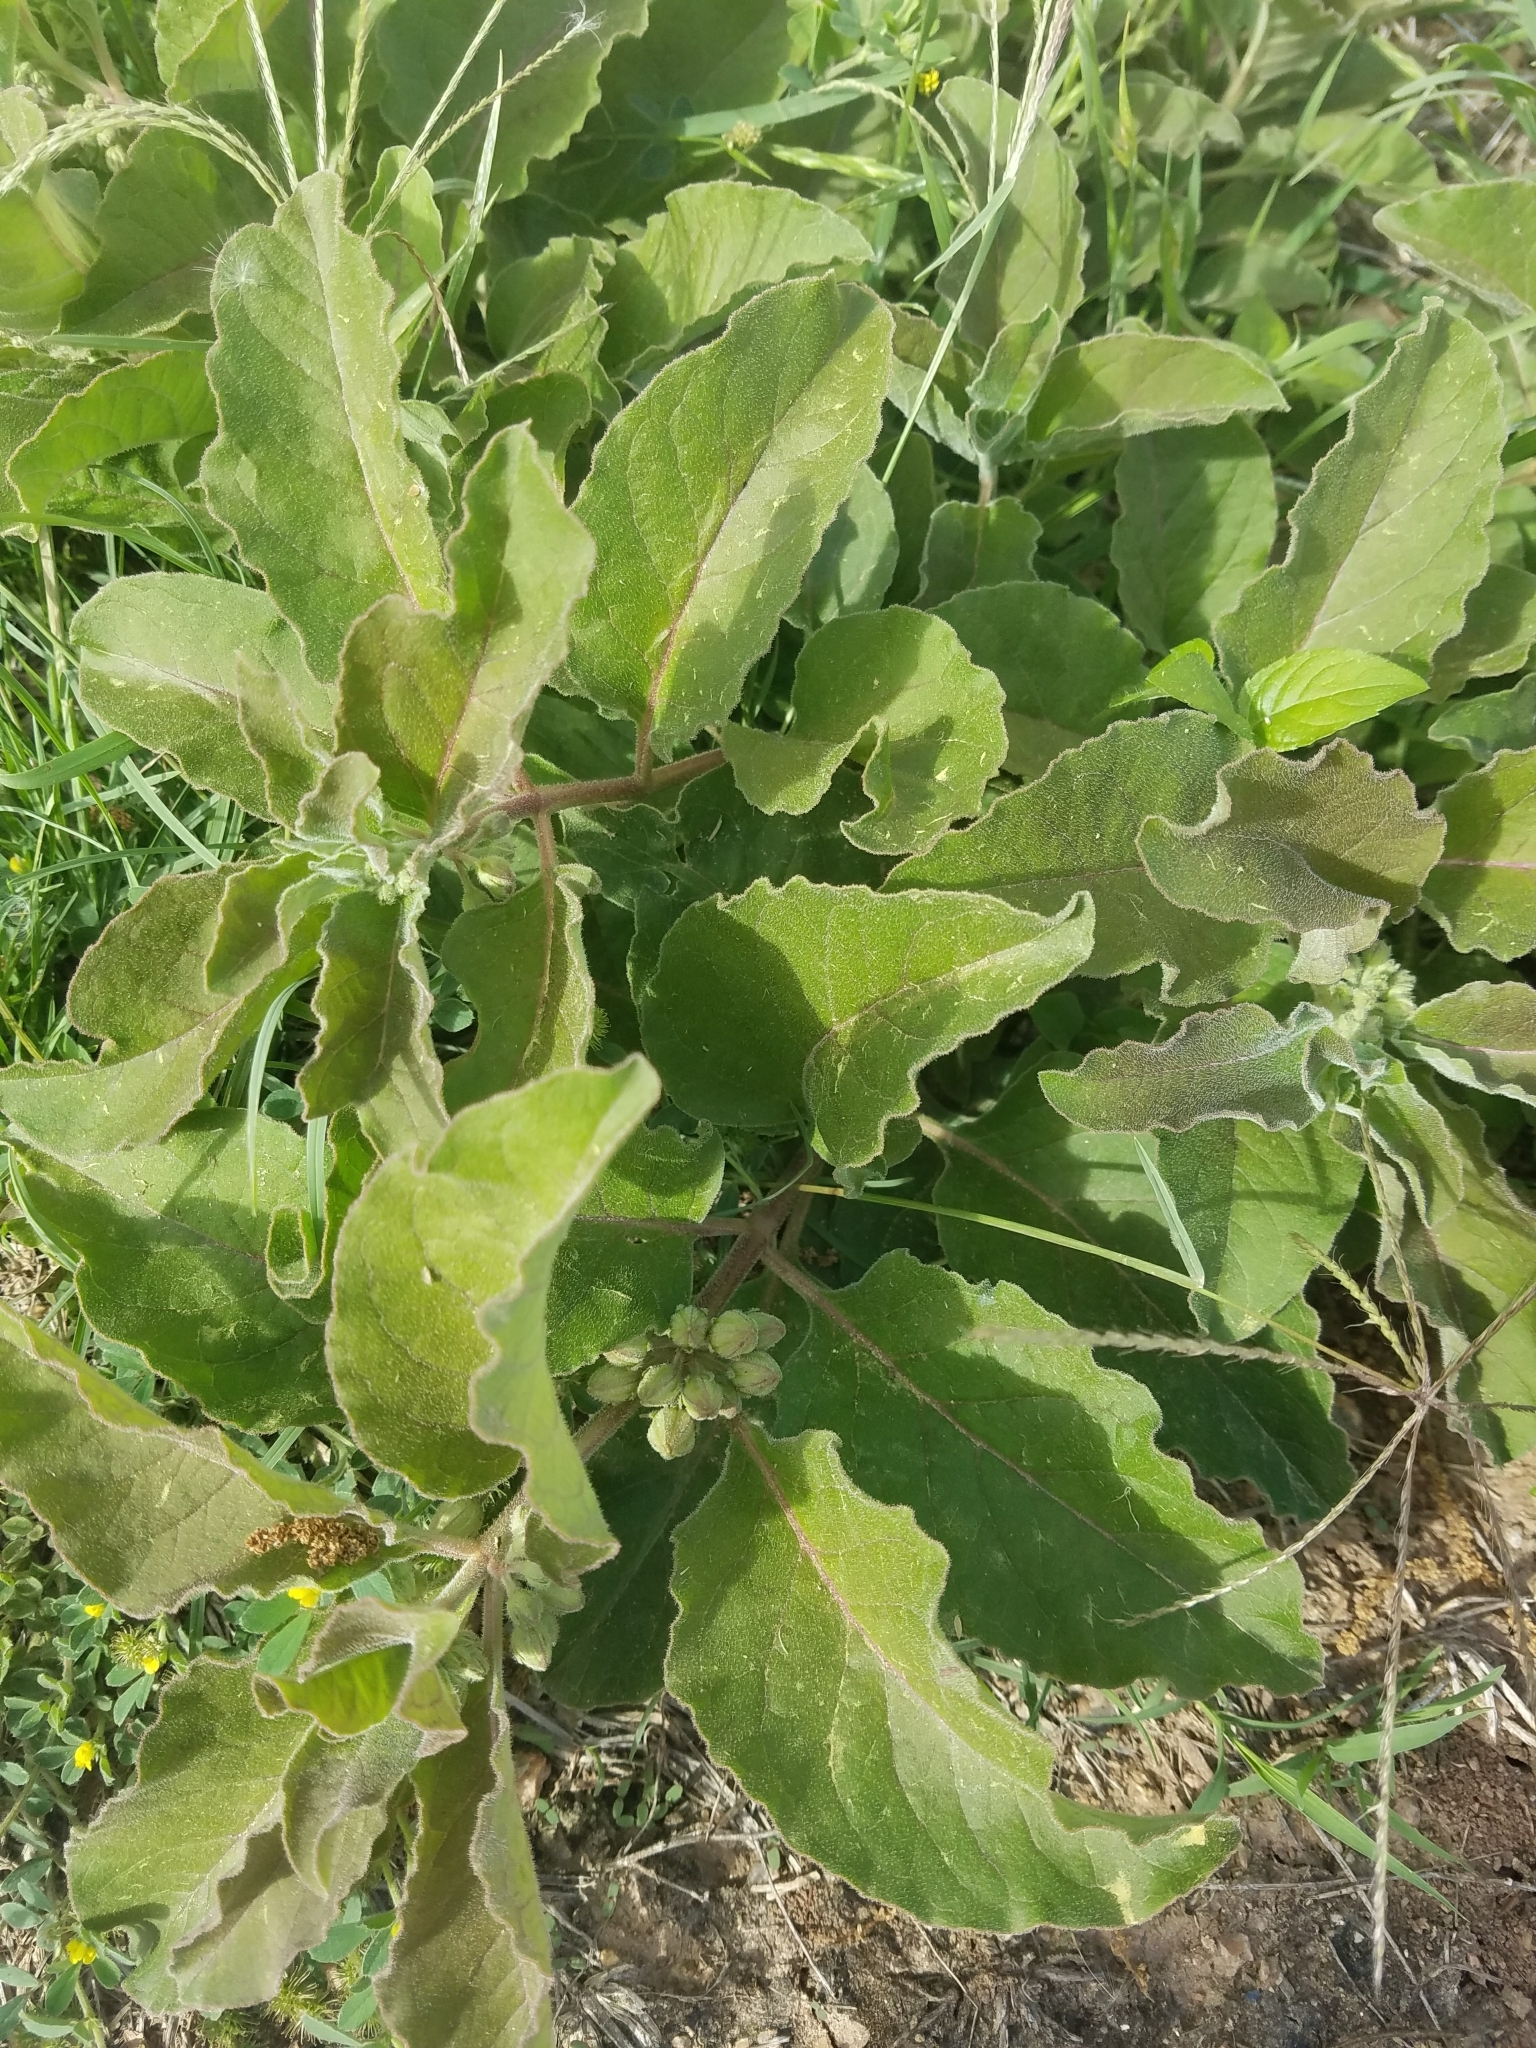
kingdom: Plantae
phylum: Tracheophyta
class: Magnoliopsida
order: Gentianales
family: Apocynaceae
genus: Asclepias
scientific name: Asclepias oenotheroides
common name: Zizotes milkweed
